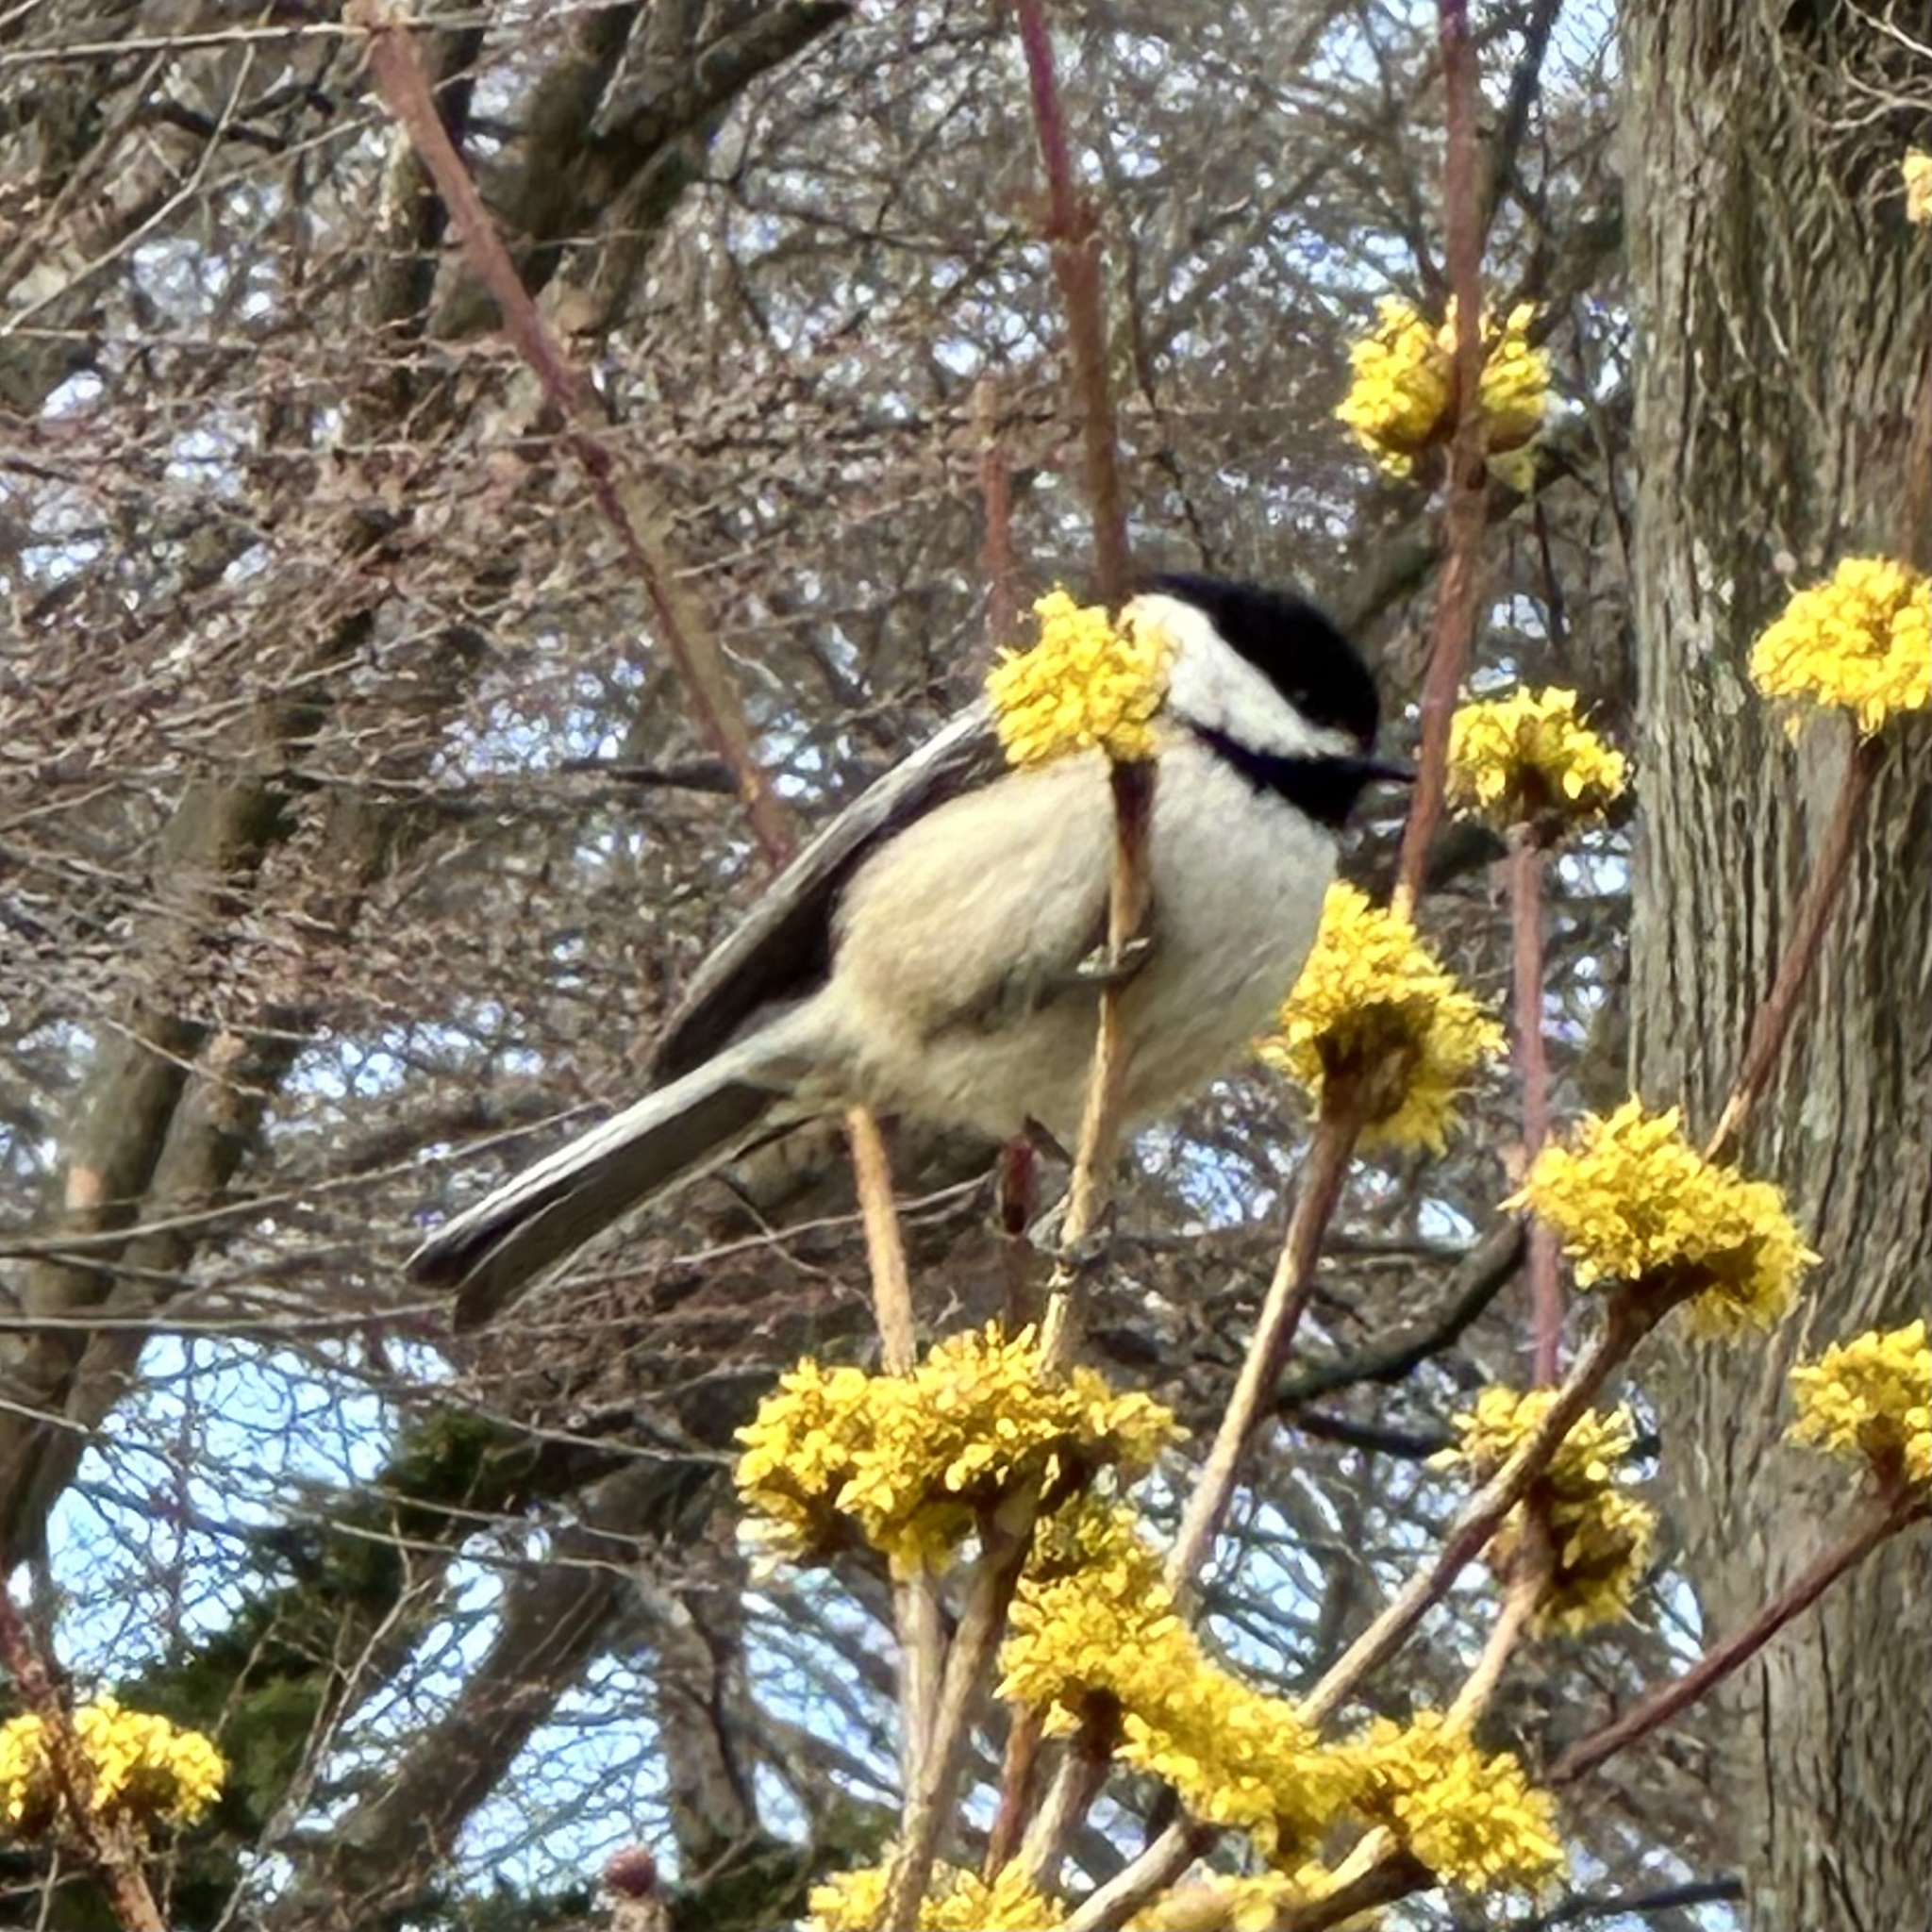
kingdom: Animalia
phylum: Chordata
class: Aves
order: Passeriformes
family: Paridae
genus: Poecile
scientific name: Poecile atricapillus
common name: Black-capped chickadee
